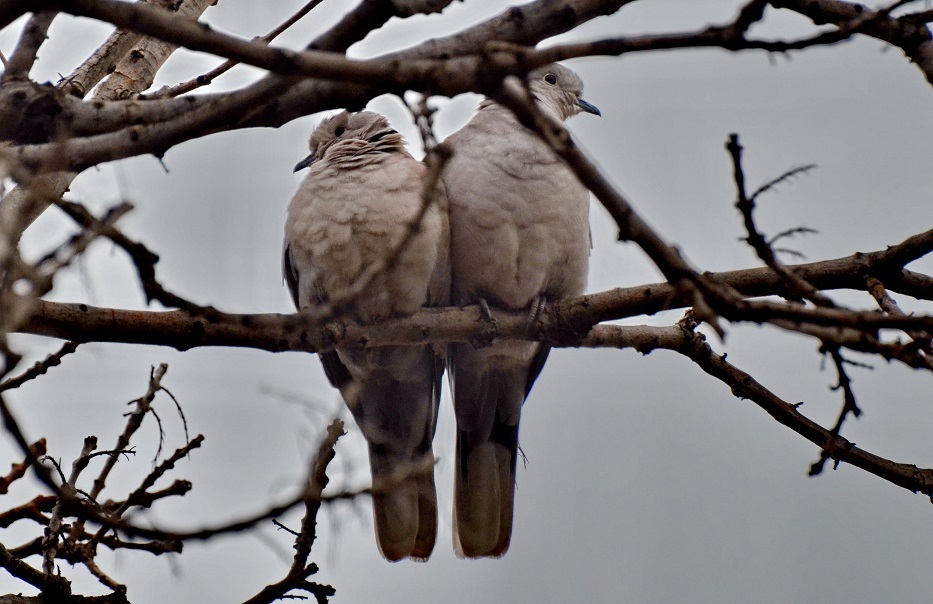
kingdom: Animalia
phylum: Chordata
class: Aves
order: Columbiformes
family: Columbidae
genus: Streptopelia
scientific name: Streptopelia decaocto
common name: Eurasian collared dove
